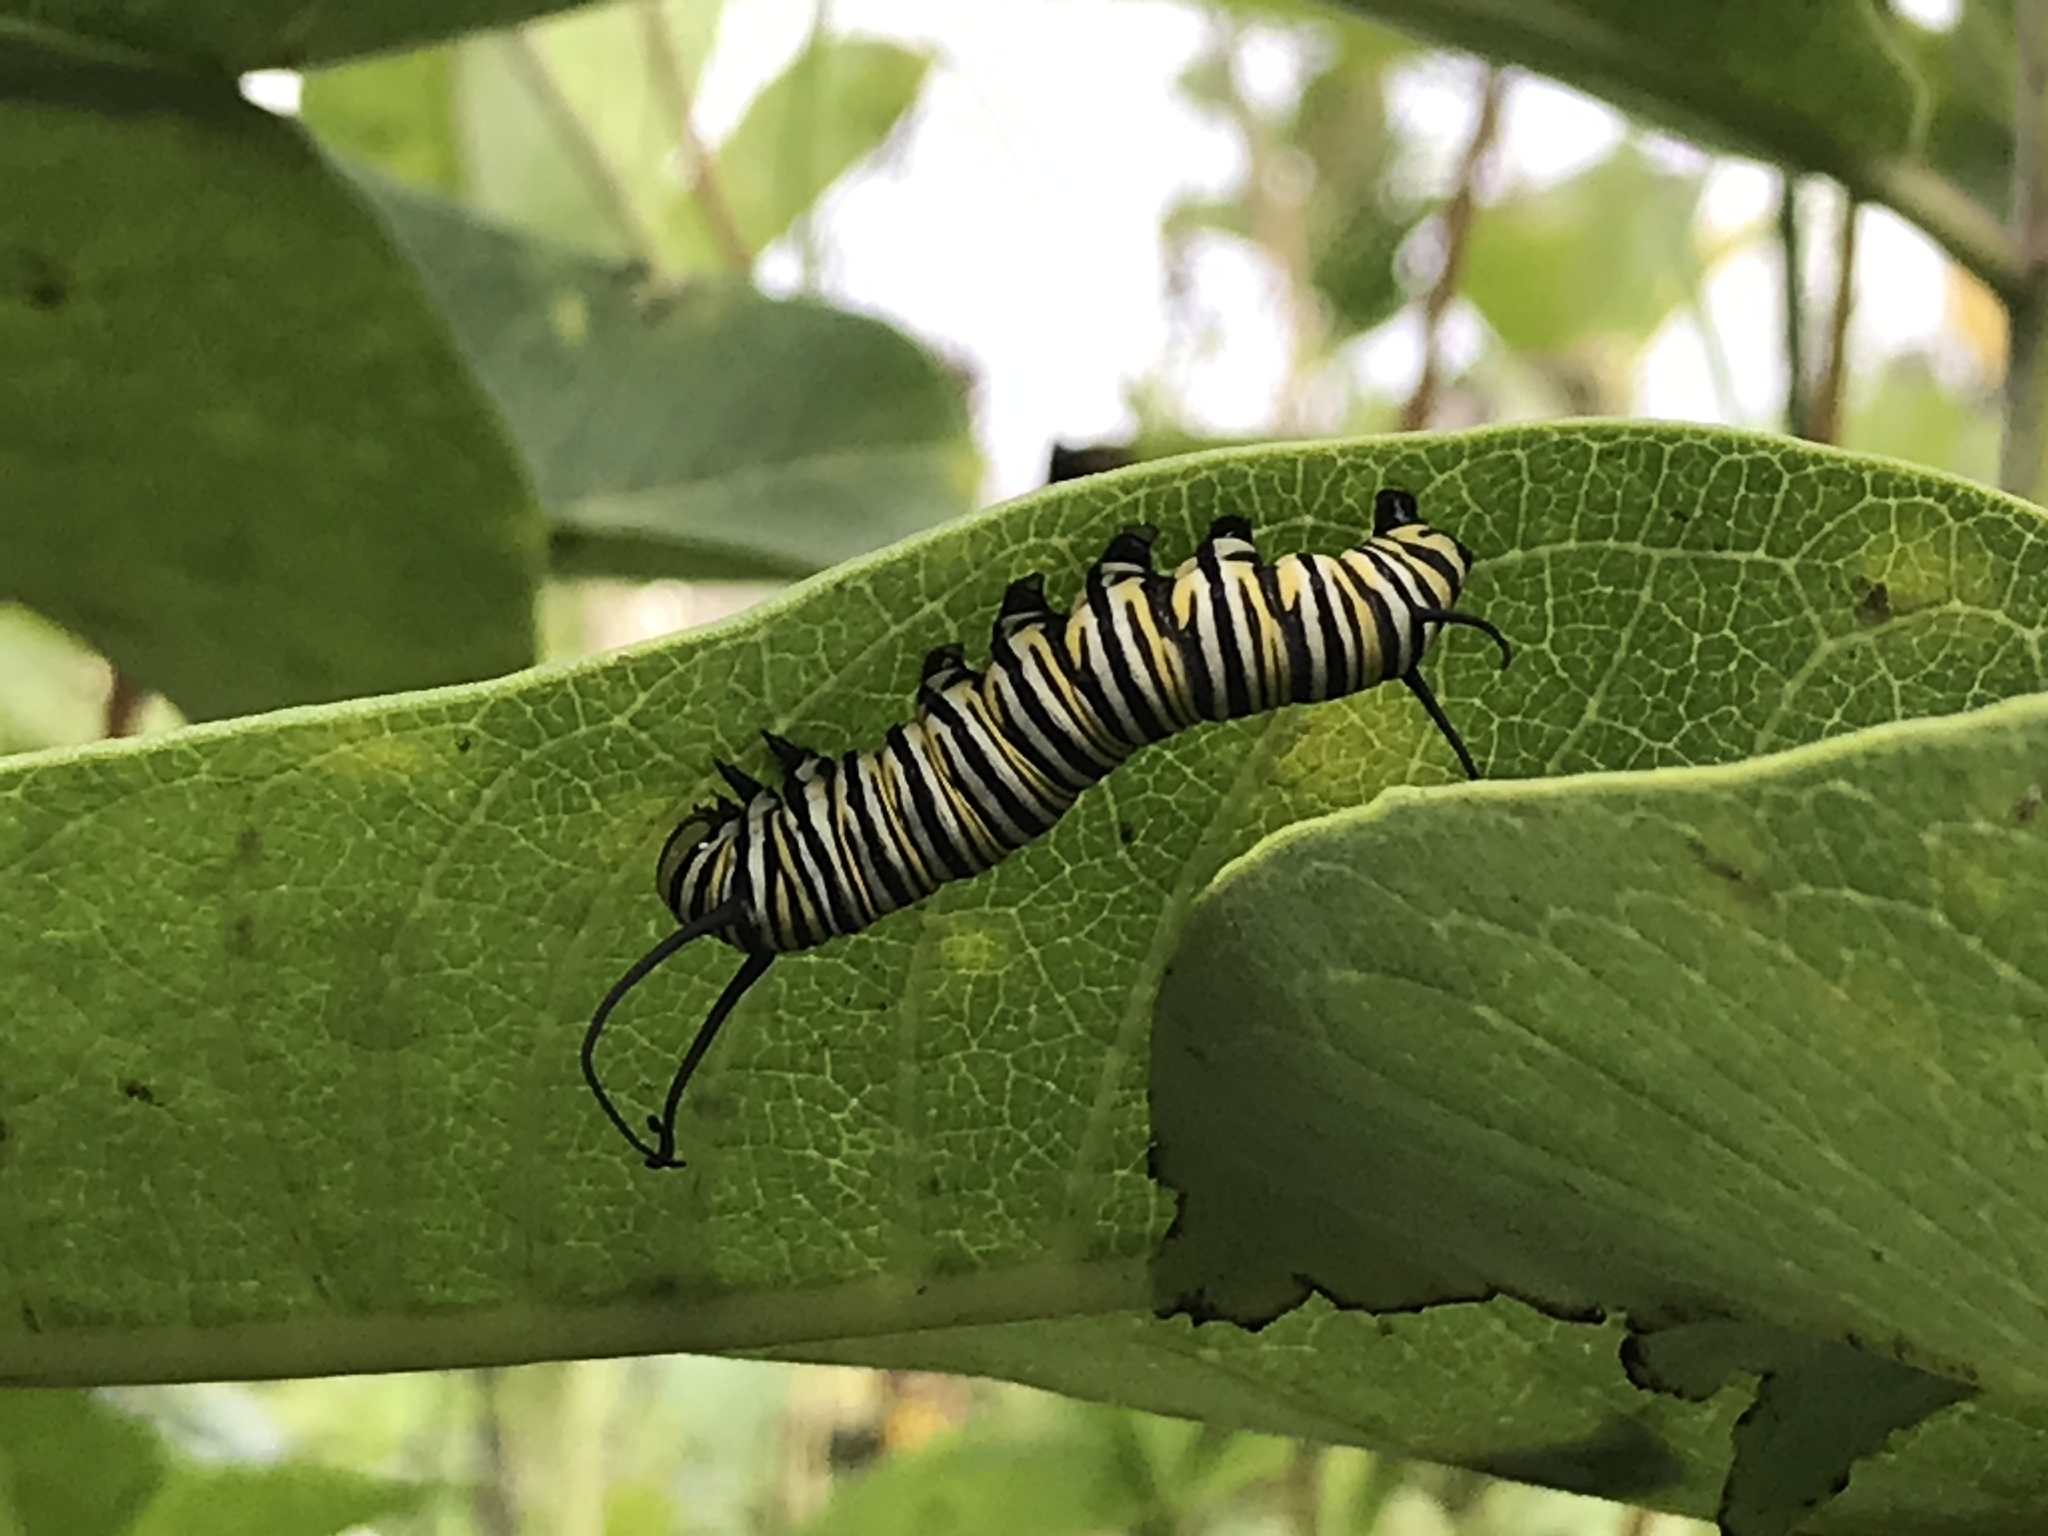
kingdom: Animalia
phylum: Arthropoda
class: Insecta
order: Lepidoptera
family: Nymphalidae
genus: Danaus
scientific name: Danaus plexippus
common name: Monarch
